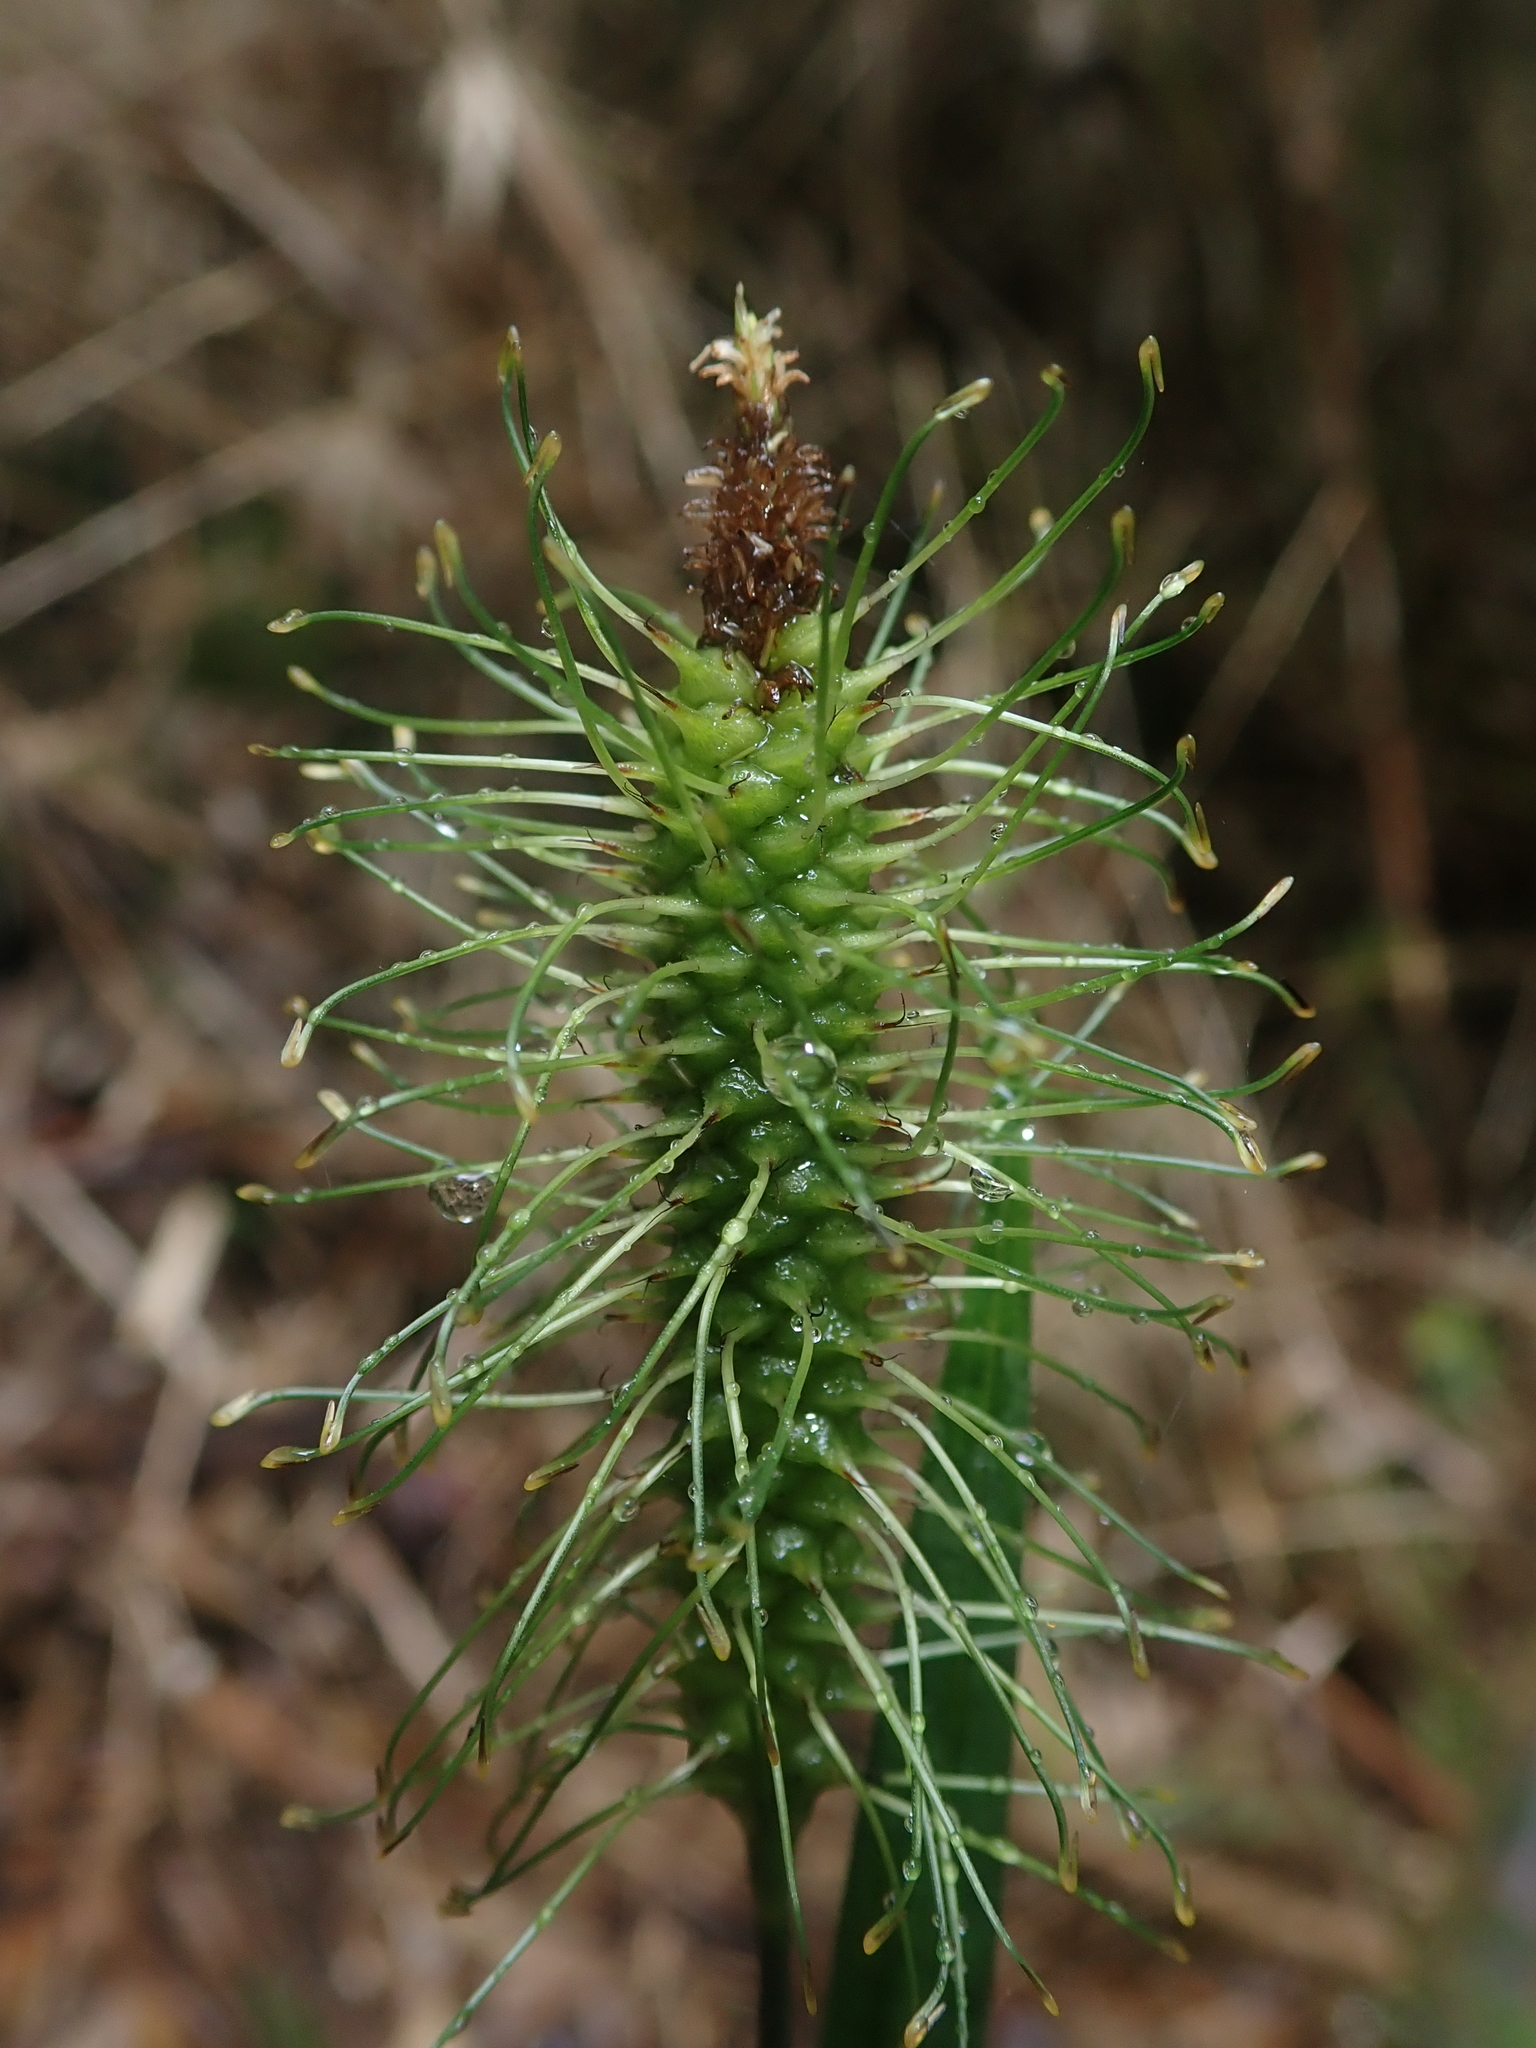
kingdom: Plantae
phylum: Tracheophyta
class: Liliopsida
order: Poales
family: Cyperaceae
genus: Carex
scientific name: Carex erinacea
